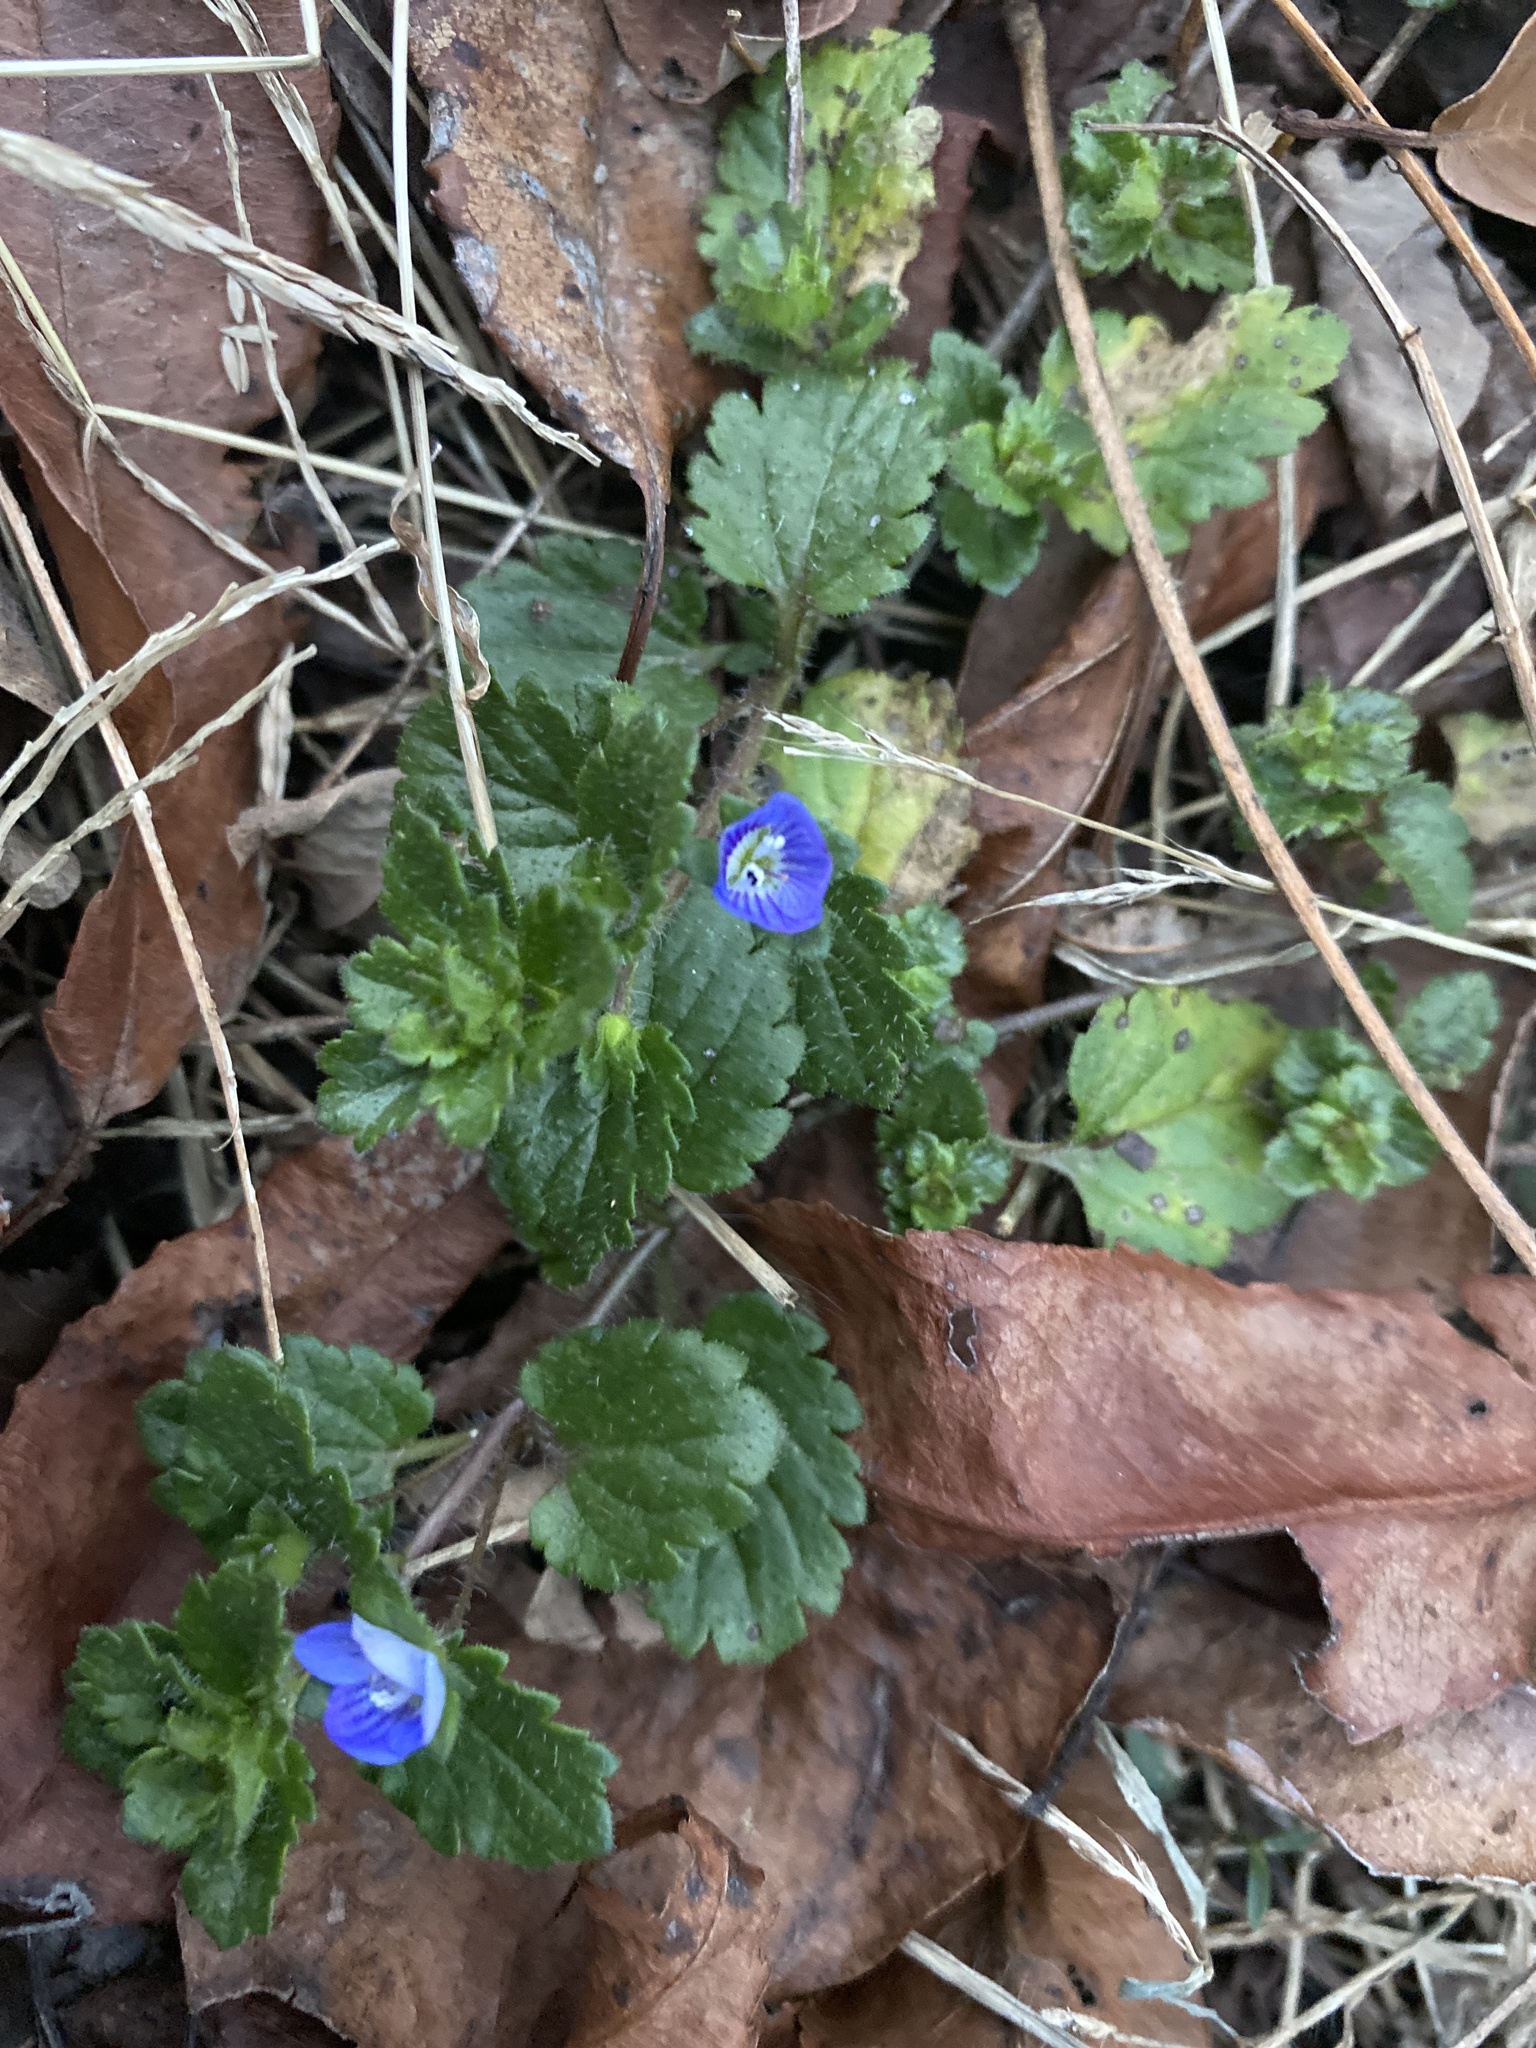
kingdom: Plantae
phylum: Tracheophyta
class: Magnoliopsida
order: Lamiales
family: Plantaginaceae
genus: Veronica
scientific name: Veronica persica
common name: Common field-speedwell
